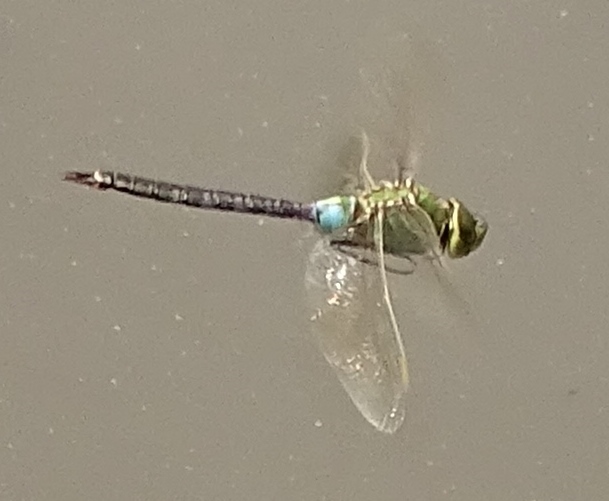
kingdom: Animalia
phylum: Arthropoda
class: Insecta
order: Odonata
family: Aeshnidae
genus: Anax
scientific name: Anax junius
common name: Common green darner
